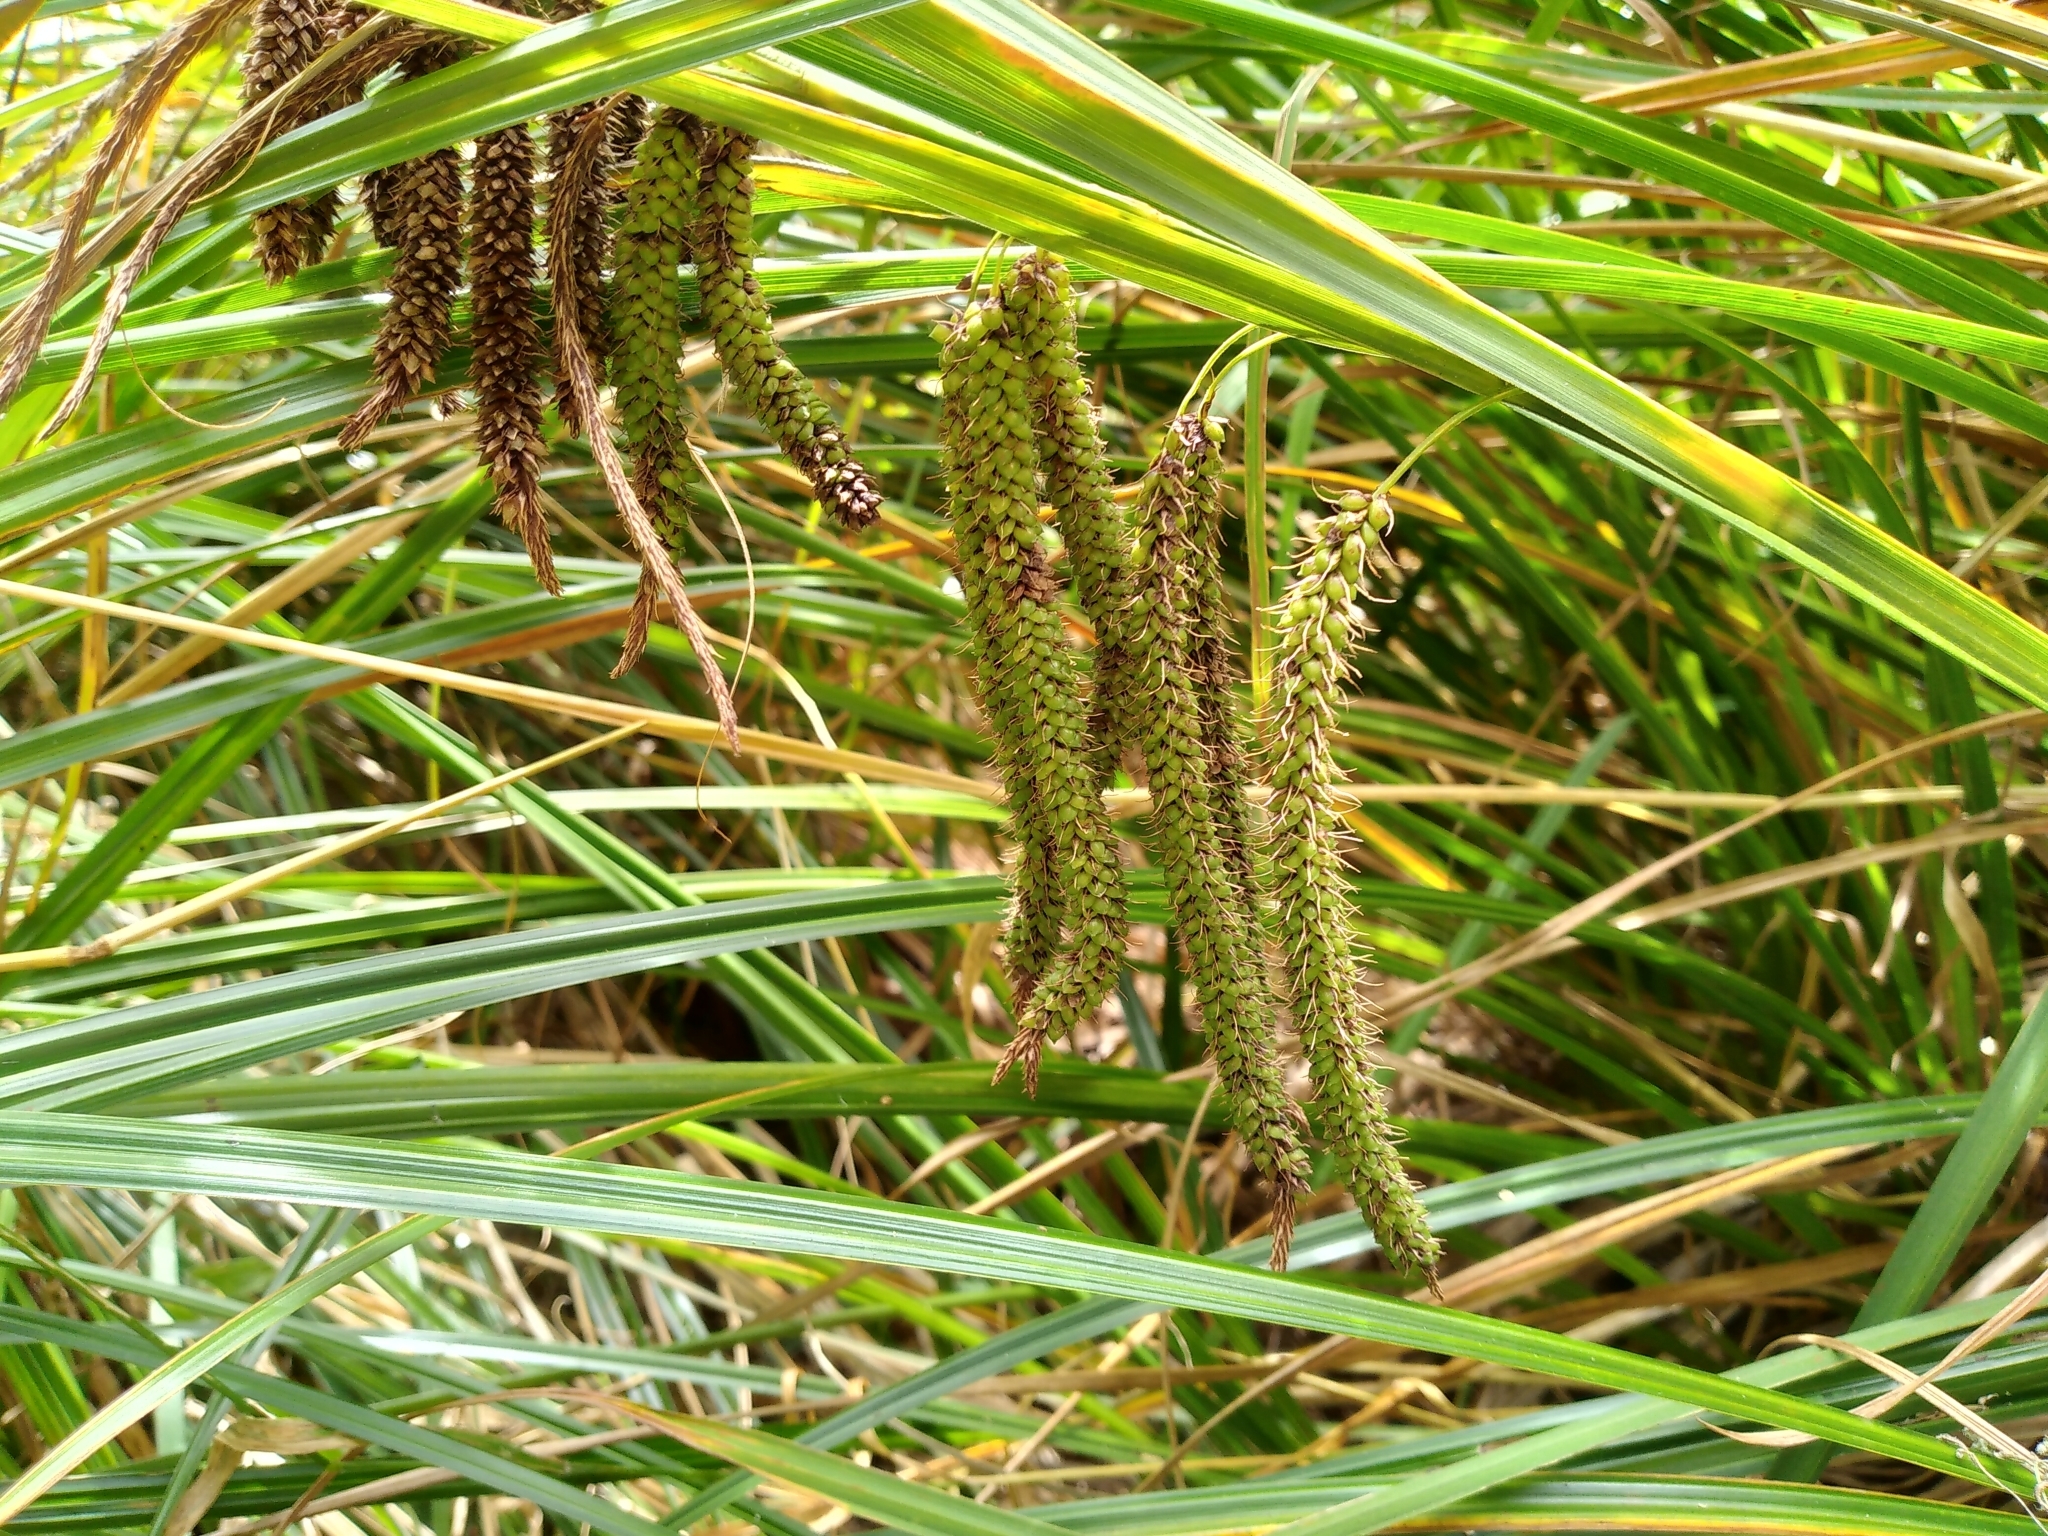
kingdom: Plantae
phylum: Tracheophyta
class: Liliopsida
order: Poales
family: Cyperaceae
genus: Carex
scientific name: Carex geminata
